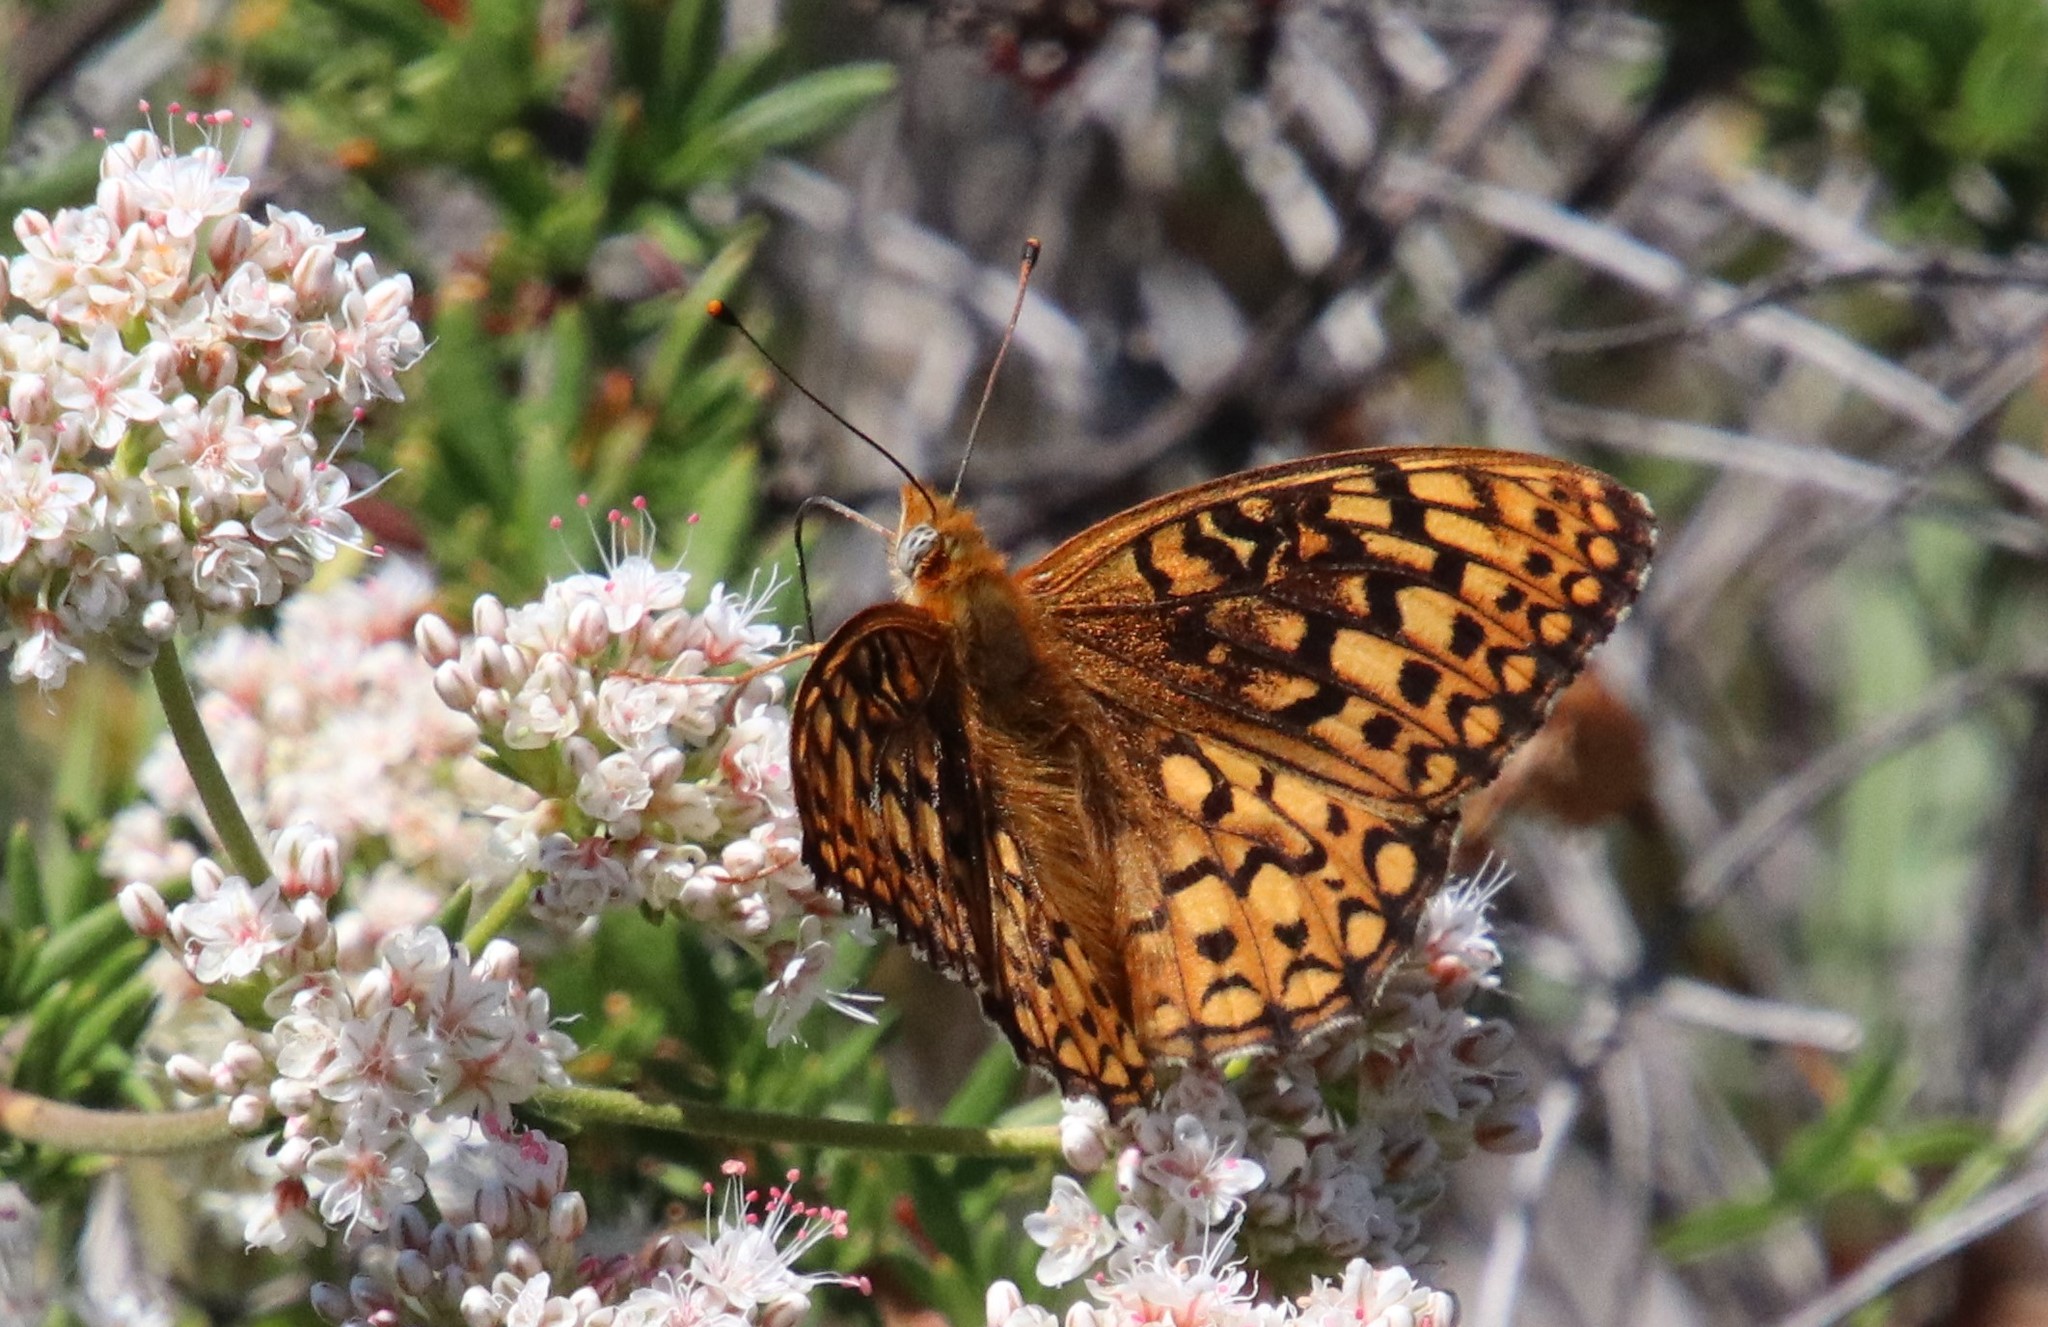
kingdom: Animalia
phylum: Arthropoda
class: Insecta
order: Lepidoptera
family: Nymphalidae
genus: Speyeria
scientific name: Speyeria callippe
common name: Callippe fritillary
